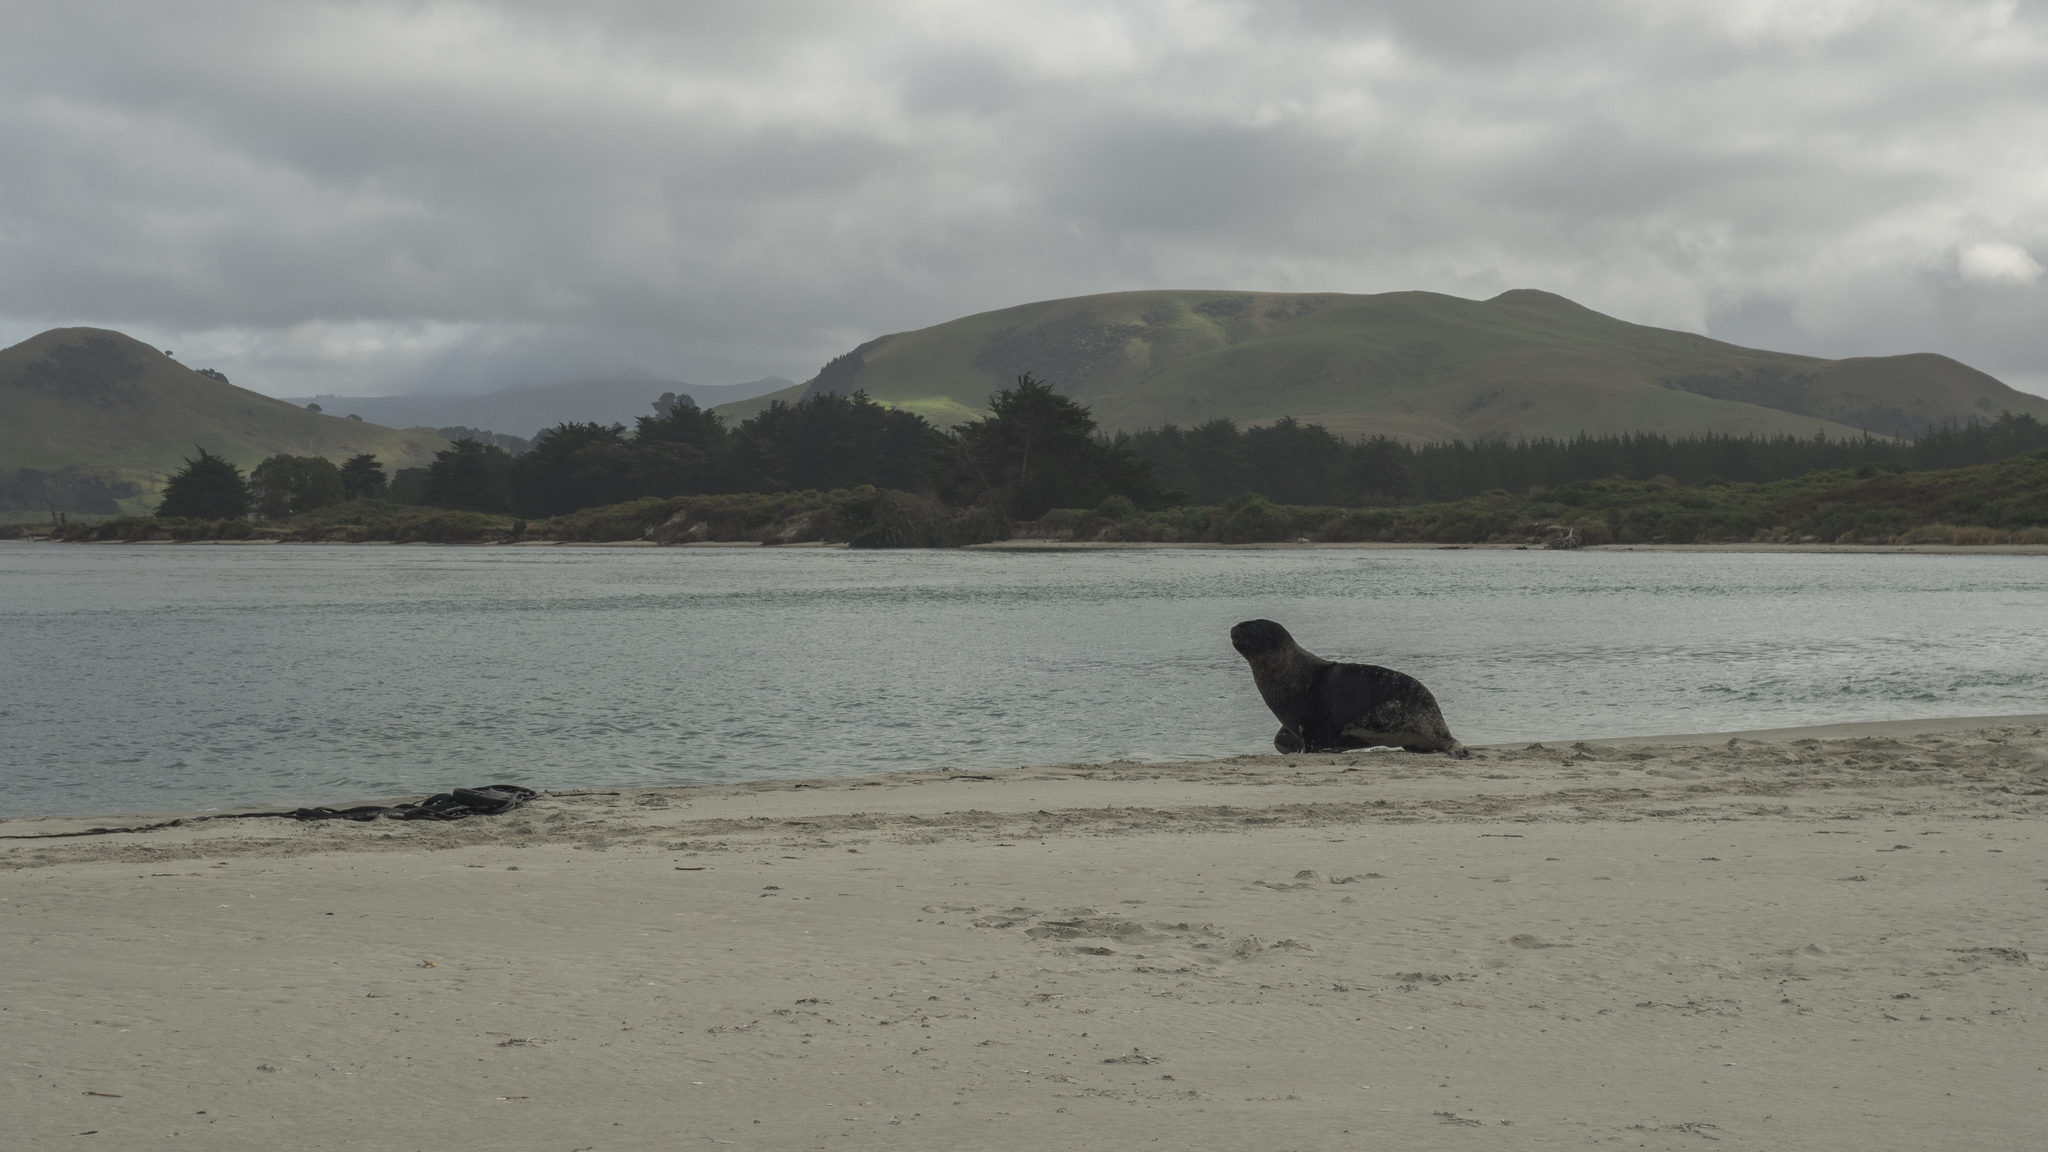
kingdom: Animalia
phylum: Chordata
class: Mammalia
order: Carnivora
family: Otariidae
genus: Phocarctos
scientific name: Phocarctos hookeri
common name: New zealand sea lion
